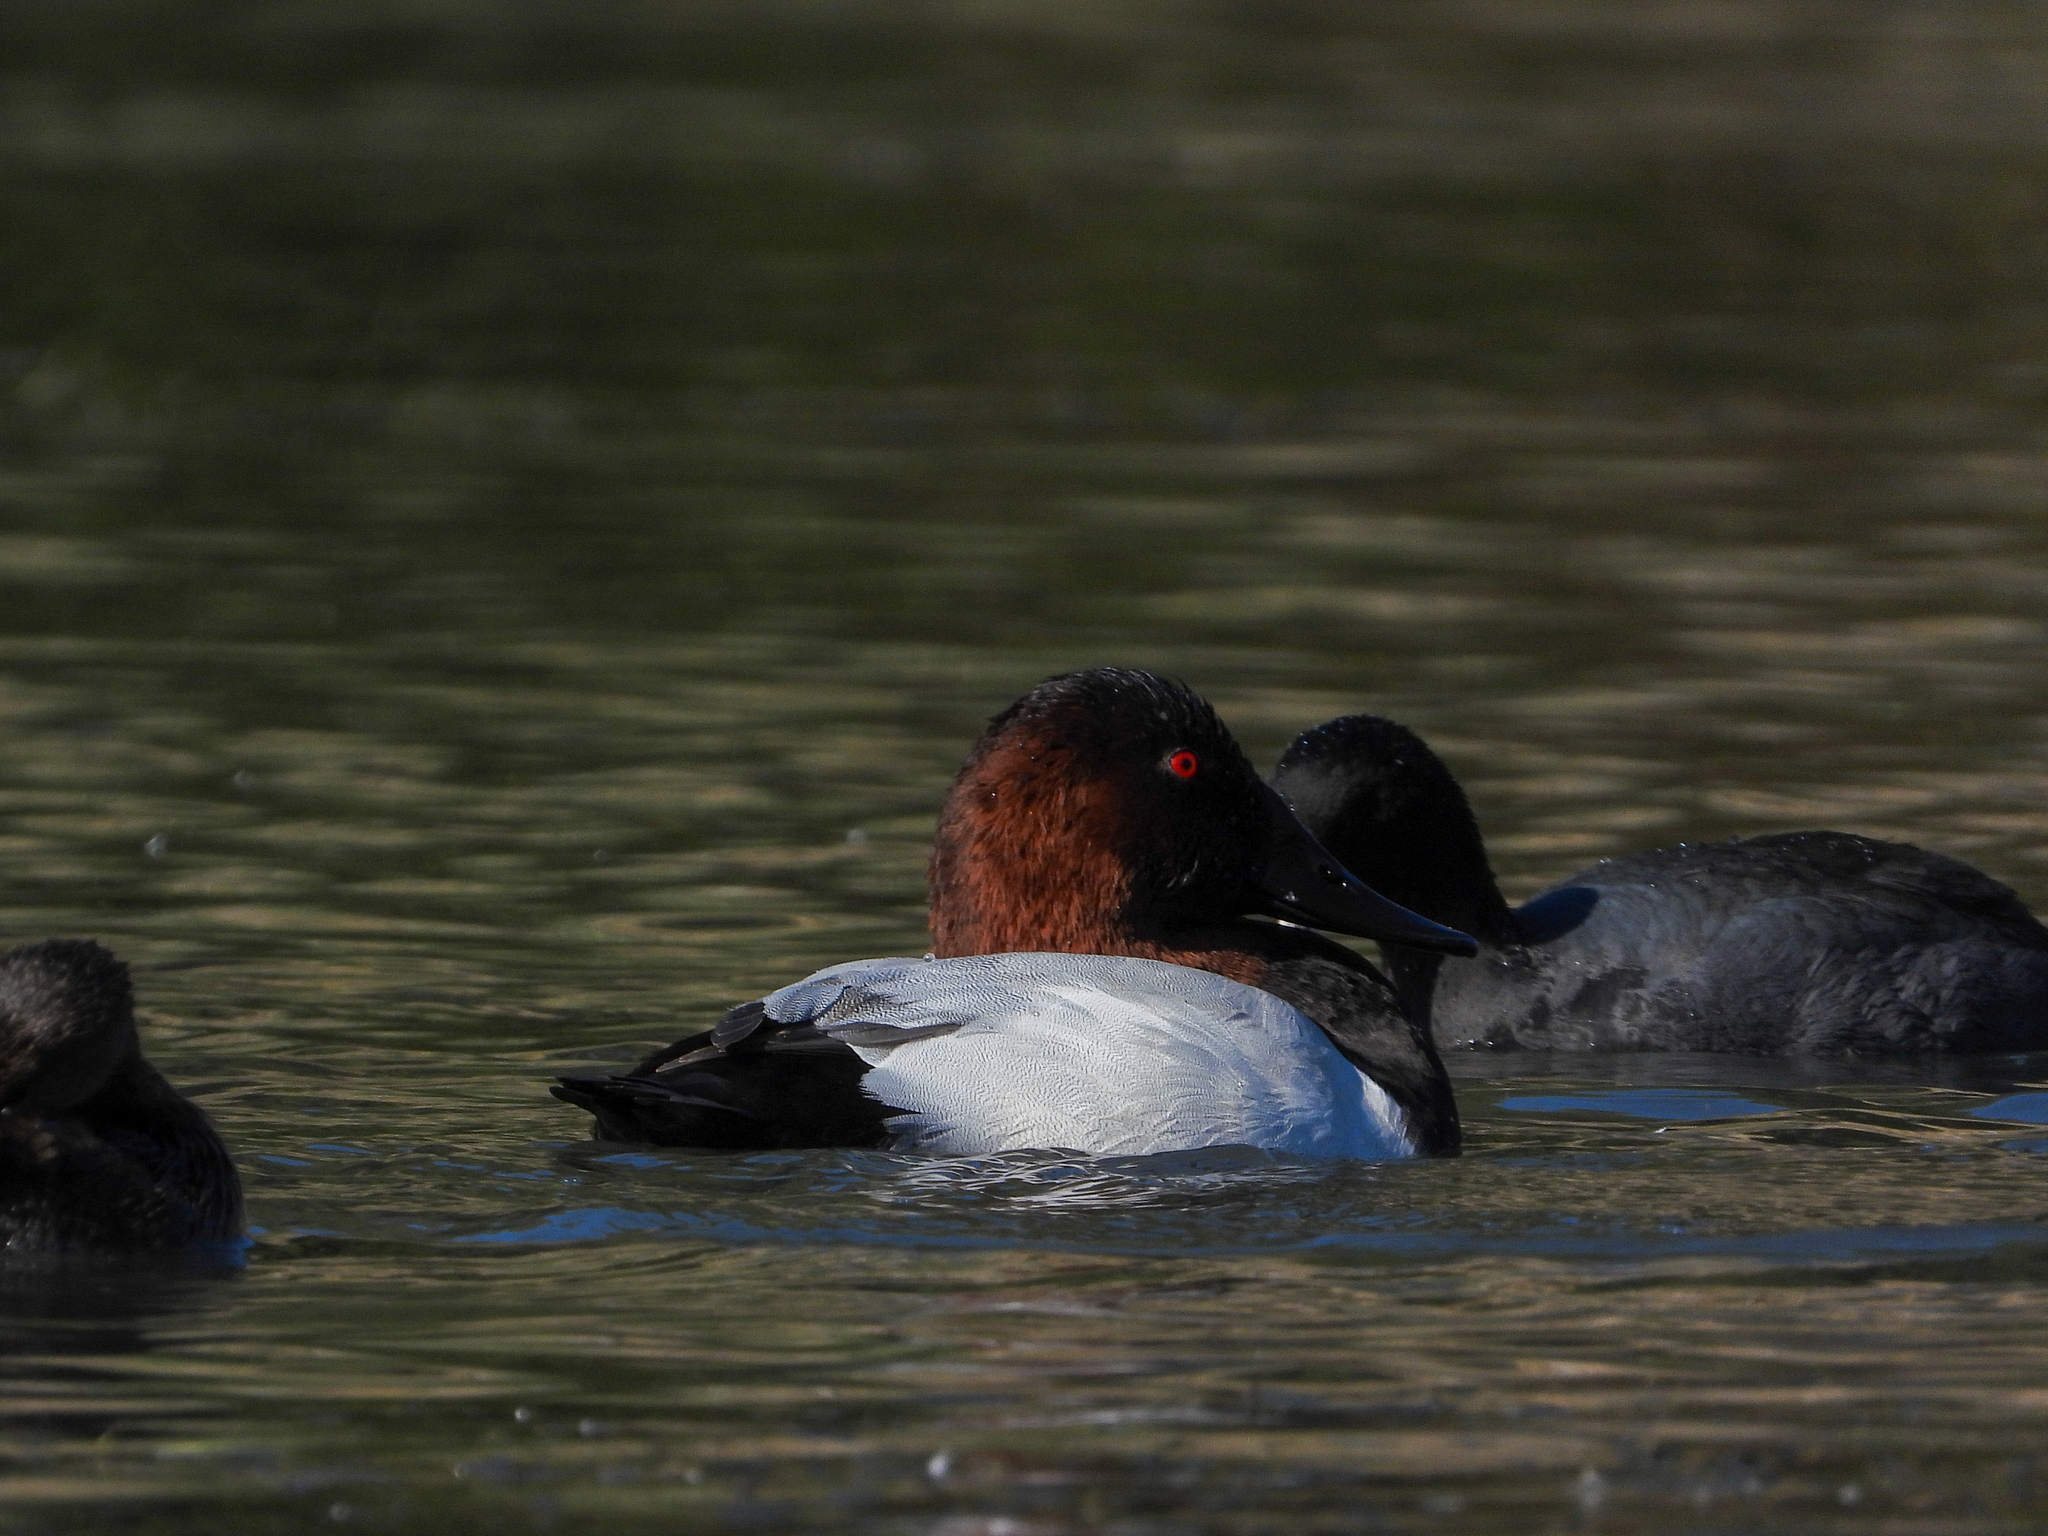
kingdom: Animalia
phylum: Chordata
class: Aves
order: Anseriformes
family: Anatidae
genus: Aythya
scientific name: Aythya valisineria
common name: Canvasback
